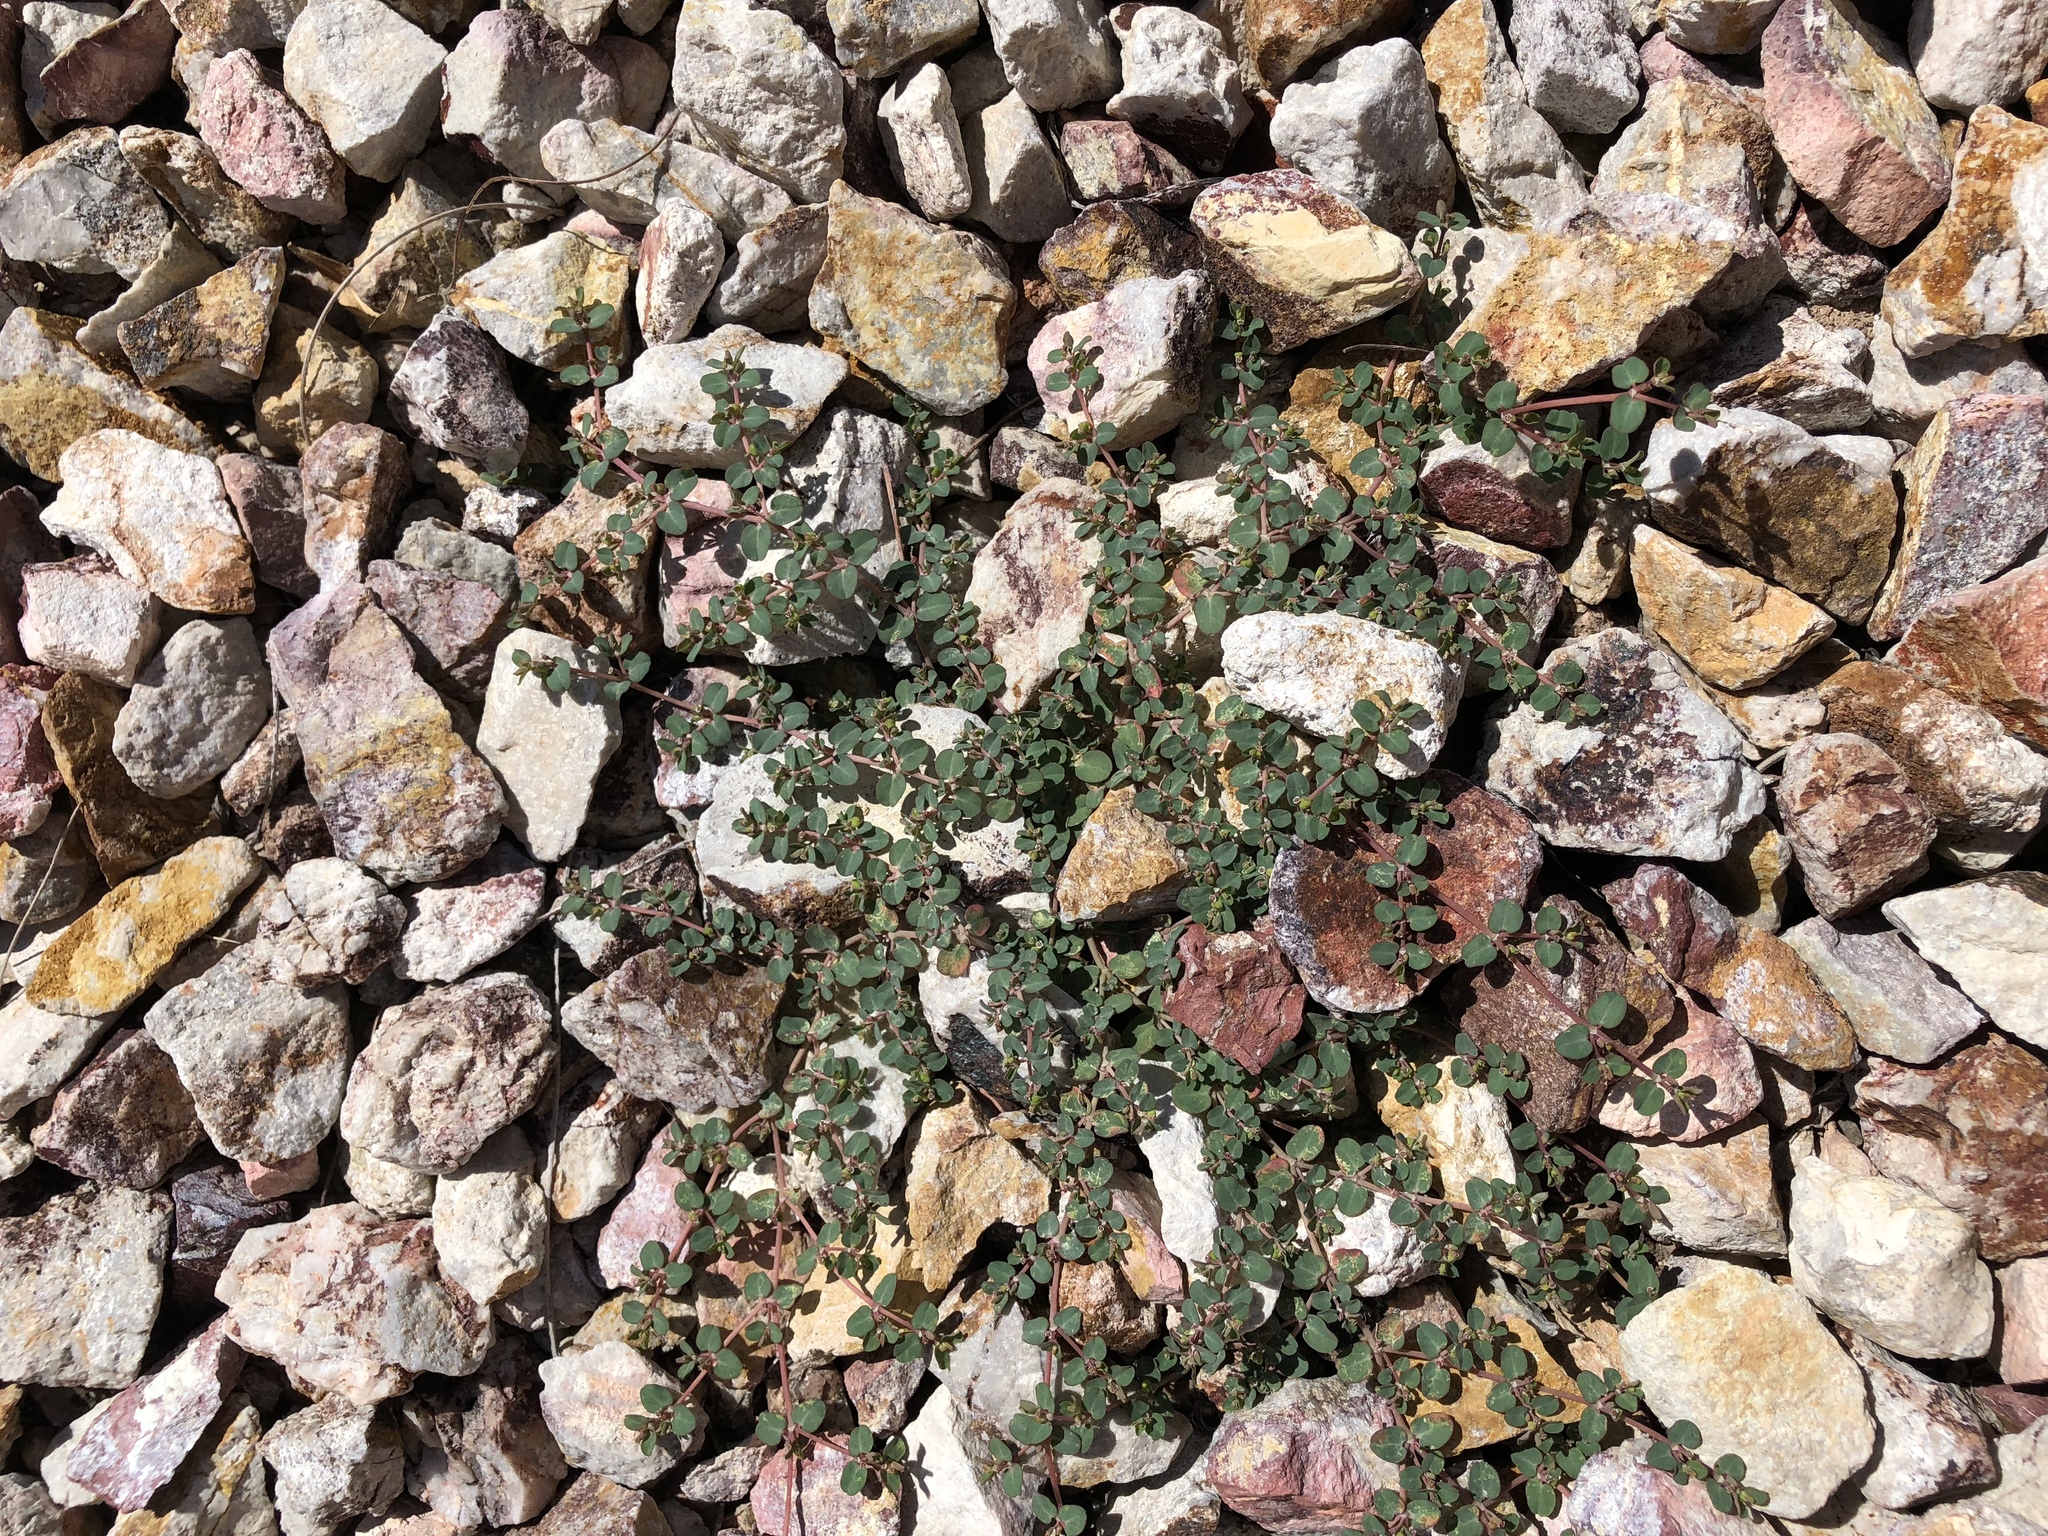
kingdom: Plantae
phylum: Tracheophyta
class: Magnoliopsida
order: Malpighiales
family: Euphorbiaceae
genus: Euphorbia
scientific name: Euphorbia serpens
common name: Matted sandmat
